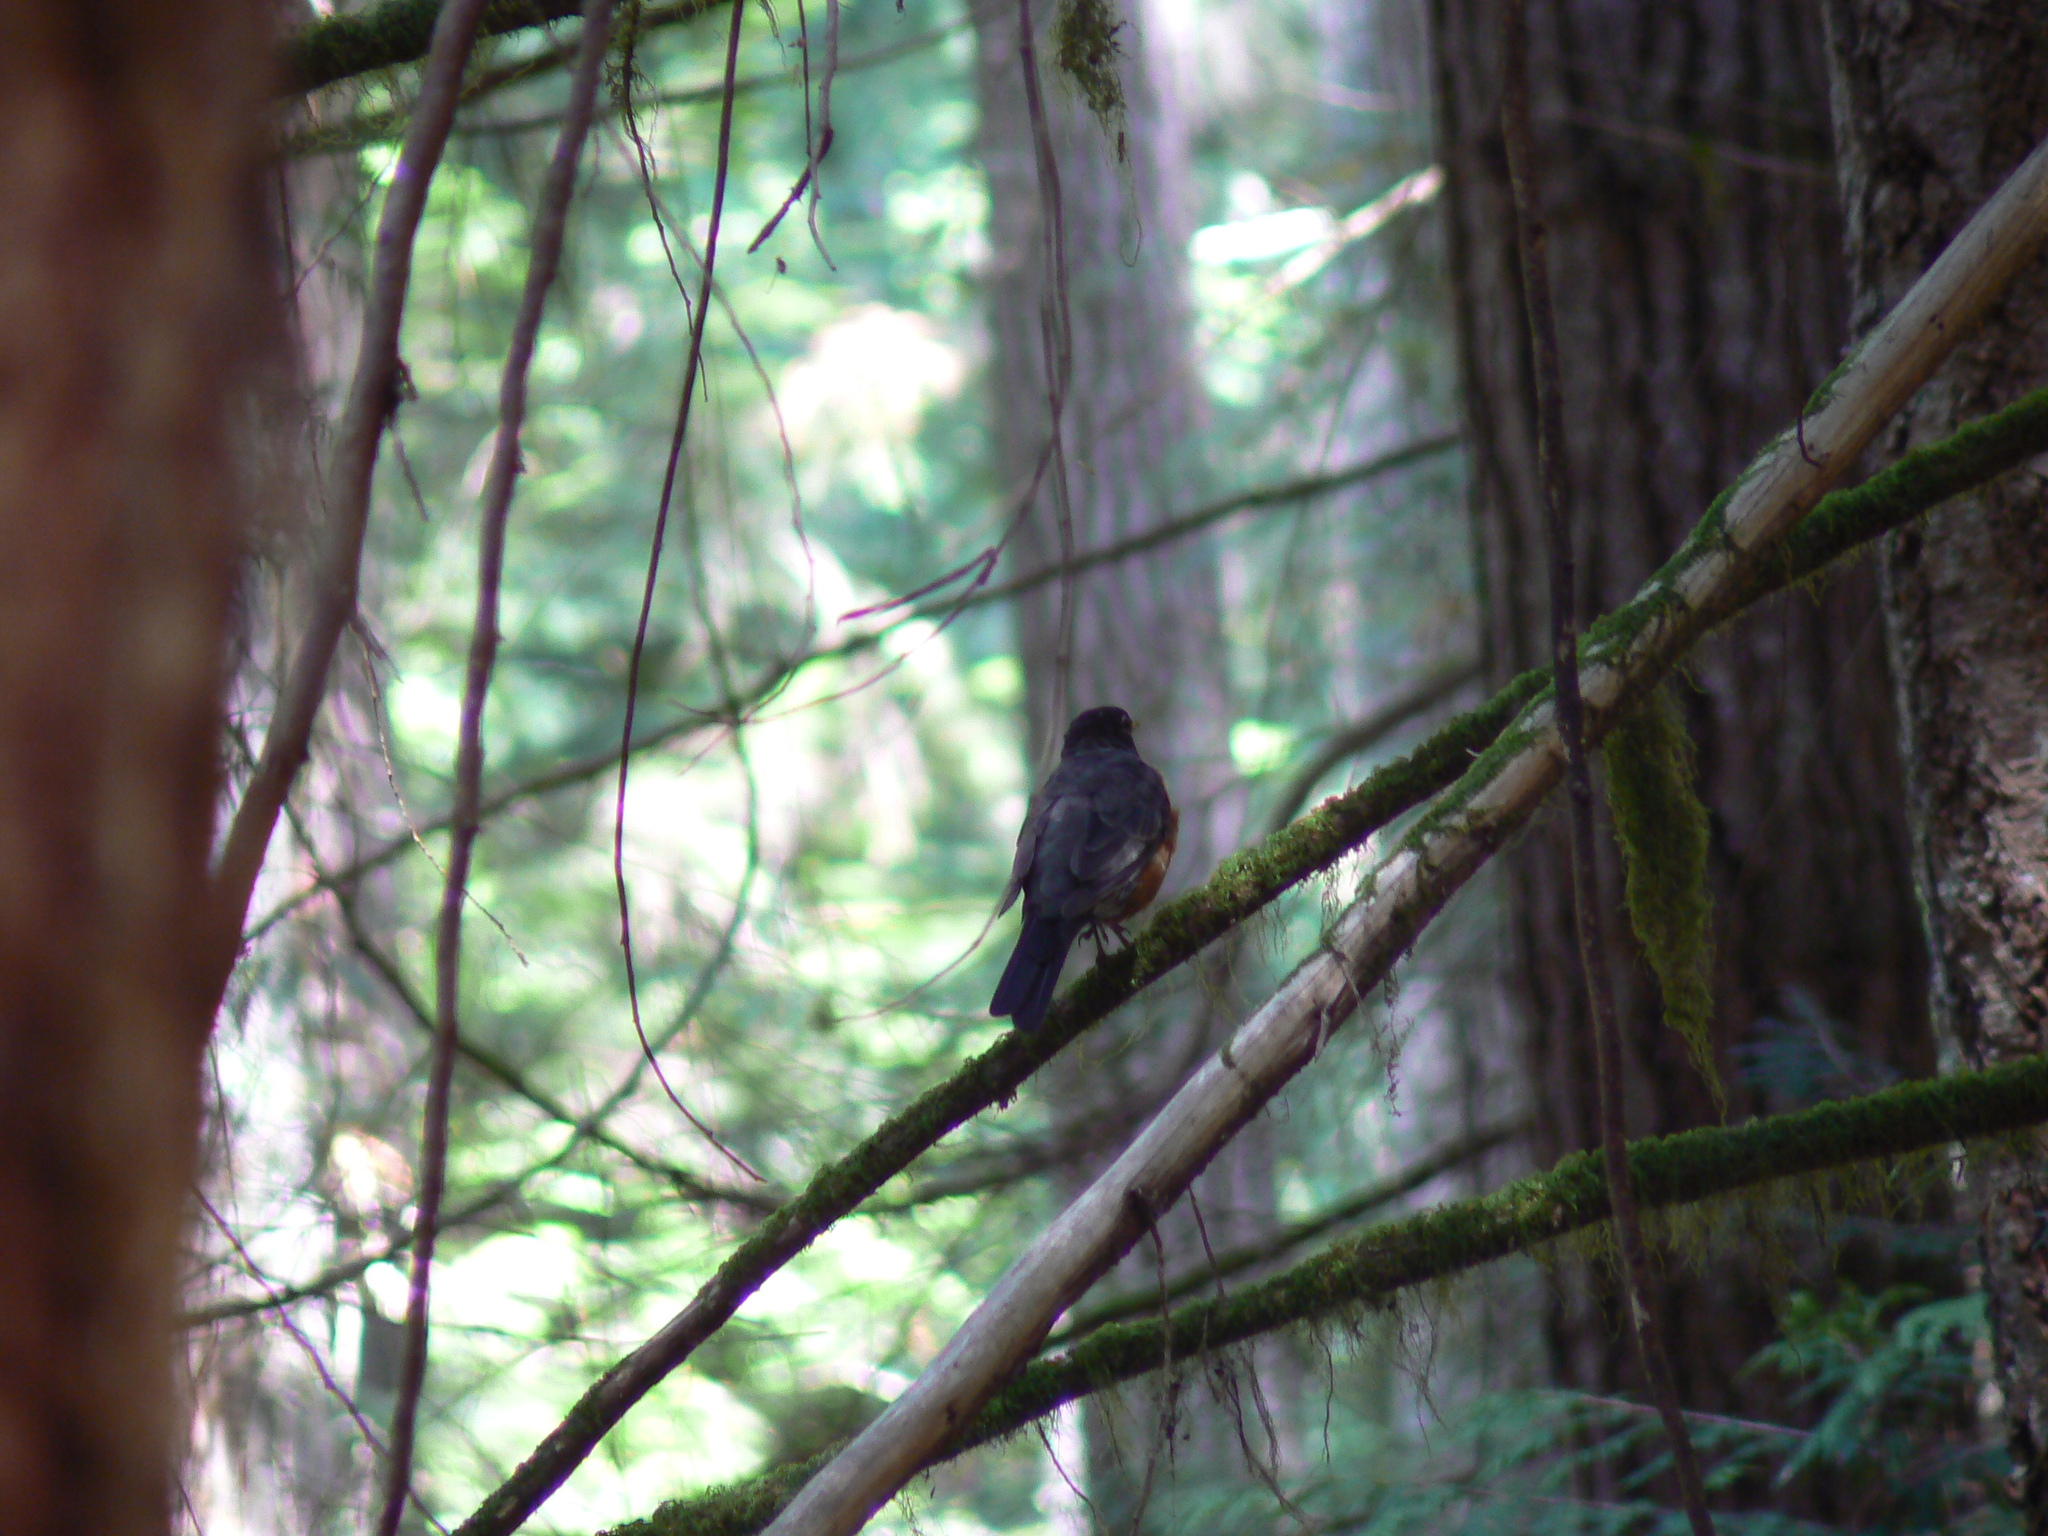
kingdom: Animalia
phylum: Chordata
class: Aves
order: Passeriformes
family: Turdidae
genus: Turdus
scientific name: Turdus migratorius
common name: American robin
